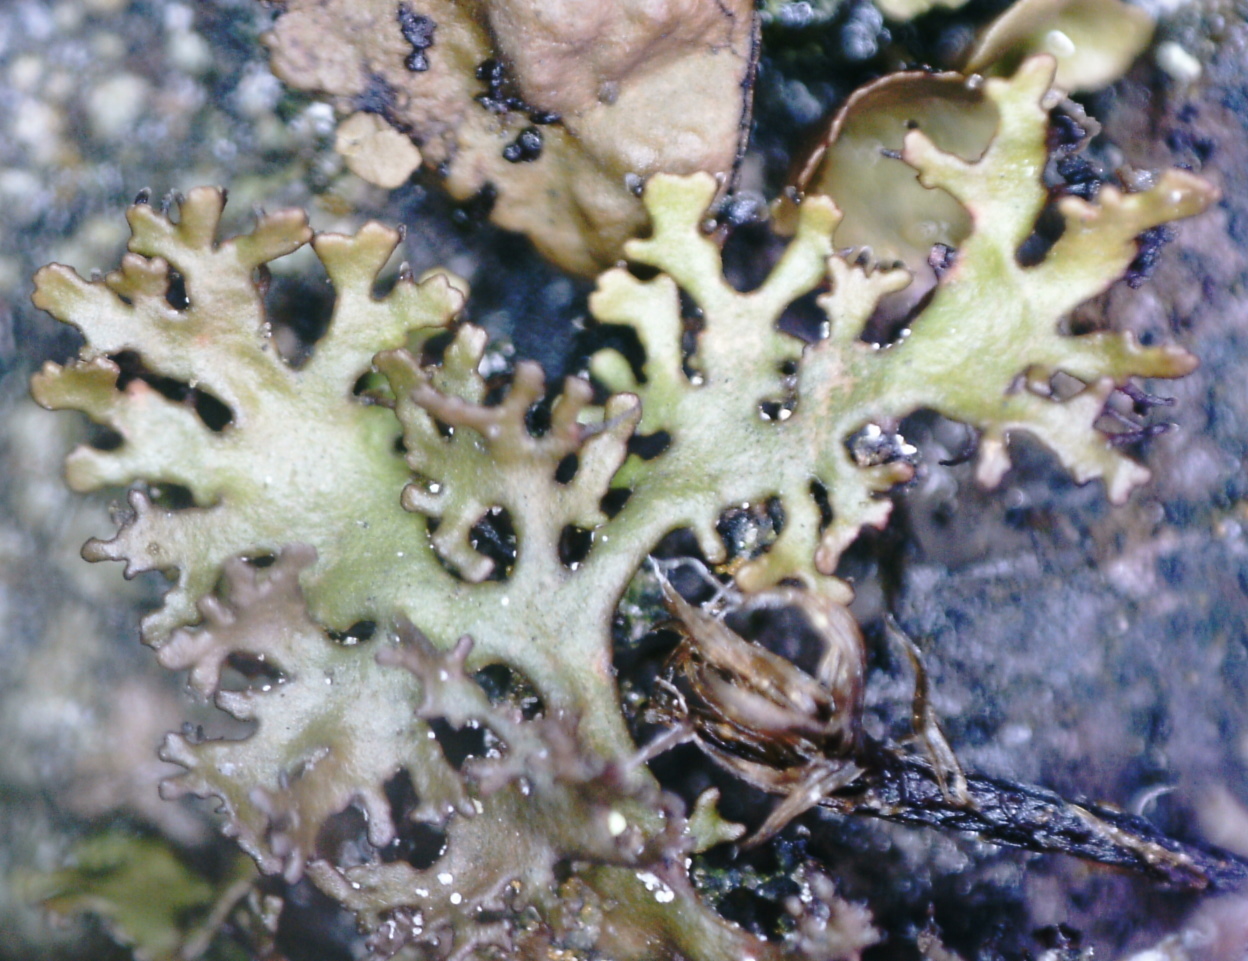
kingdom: Fungi
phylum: Ascomycota
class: Lecanoromycetes
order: Lecanorales
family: Parmeliaceae
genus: Cetraria
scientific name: Cetraria odontella
